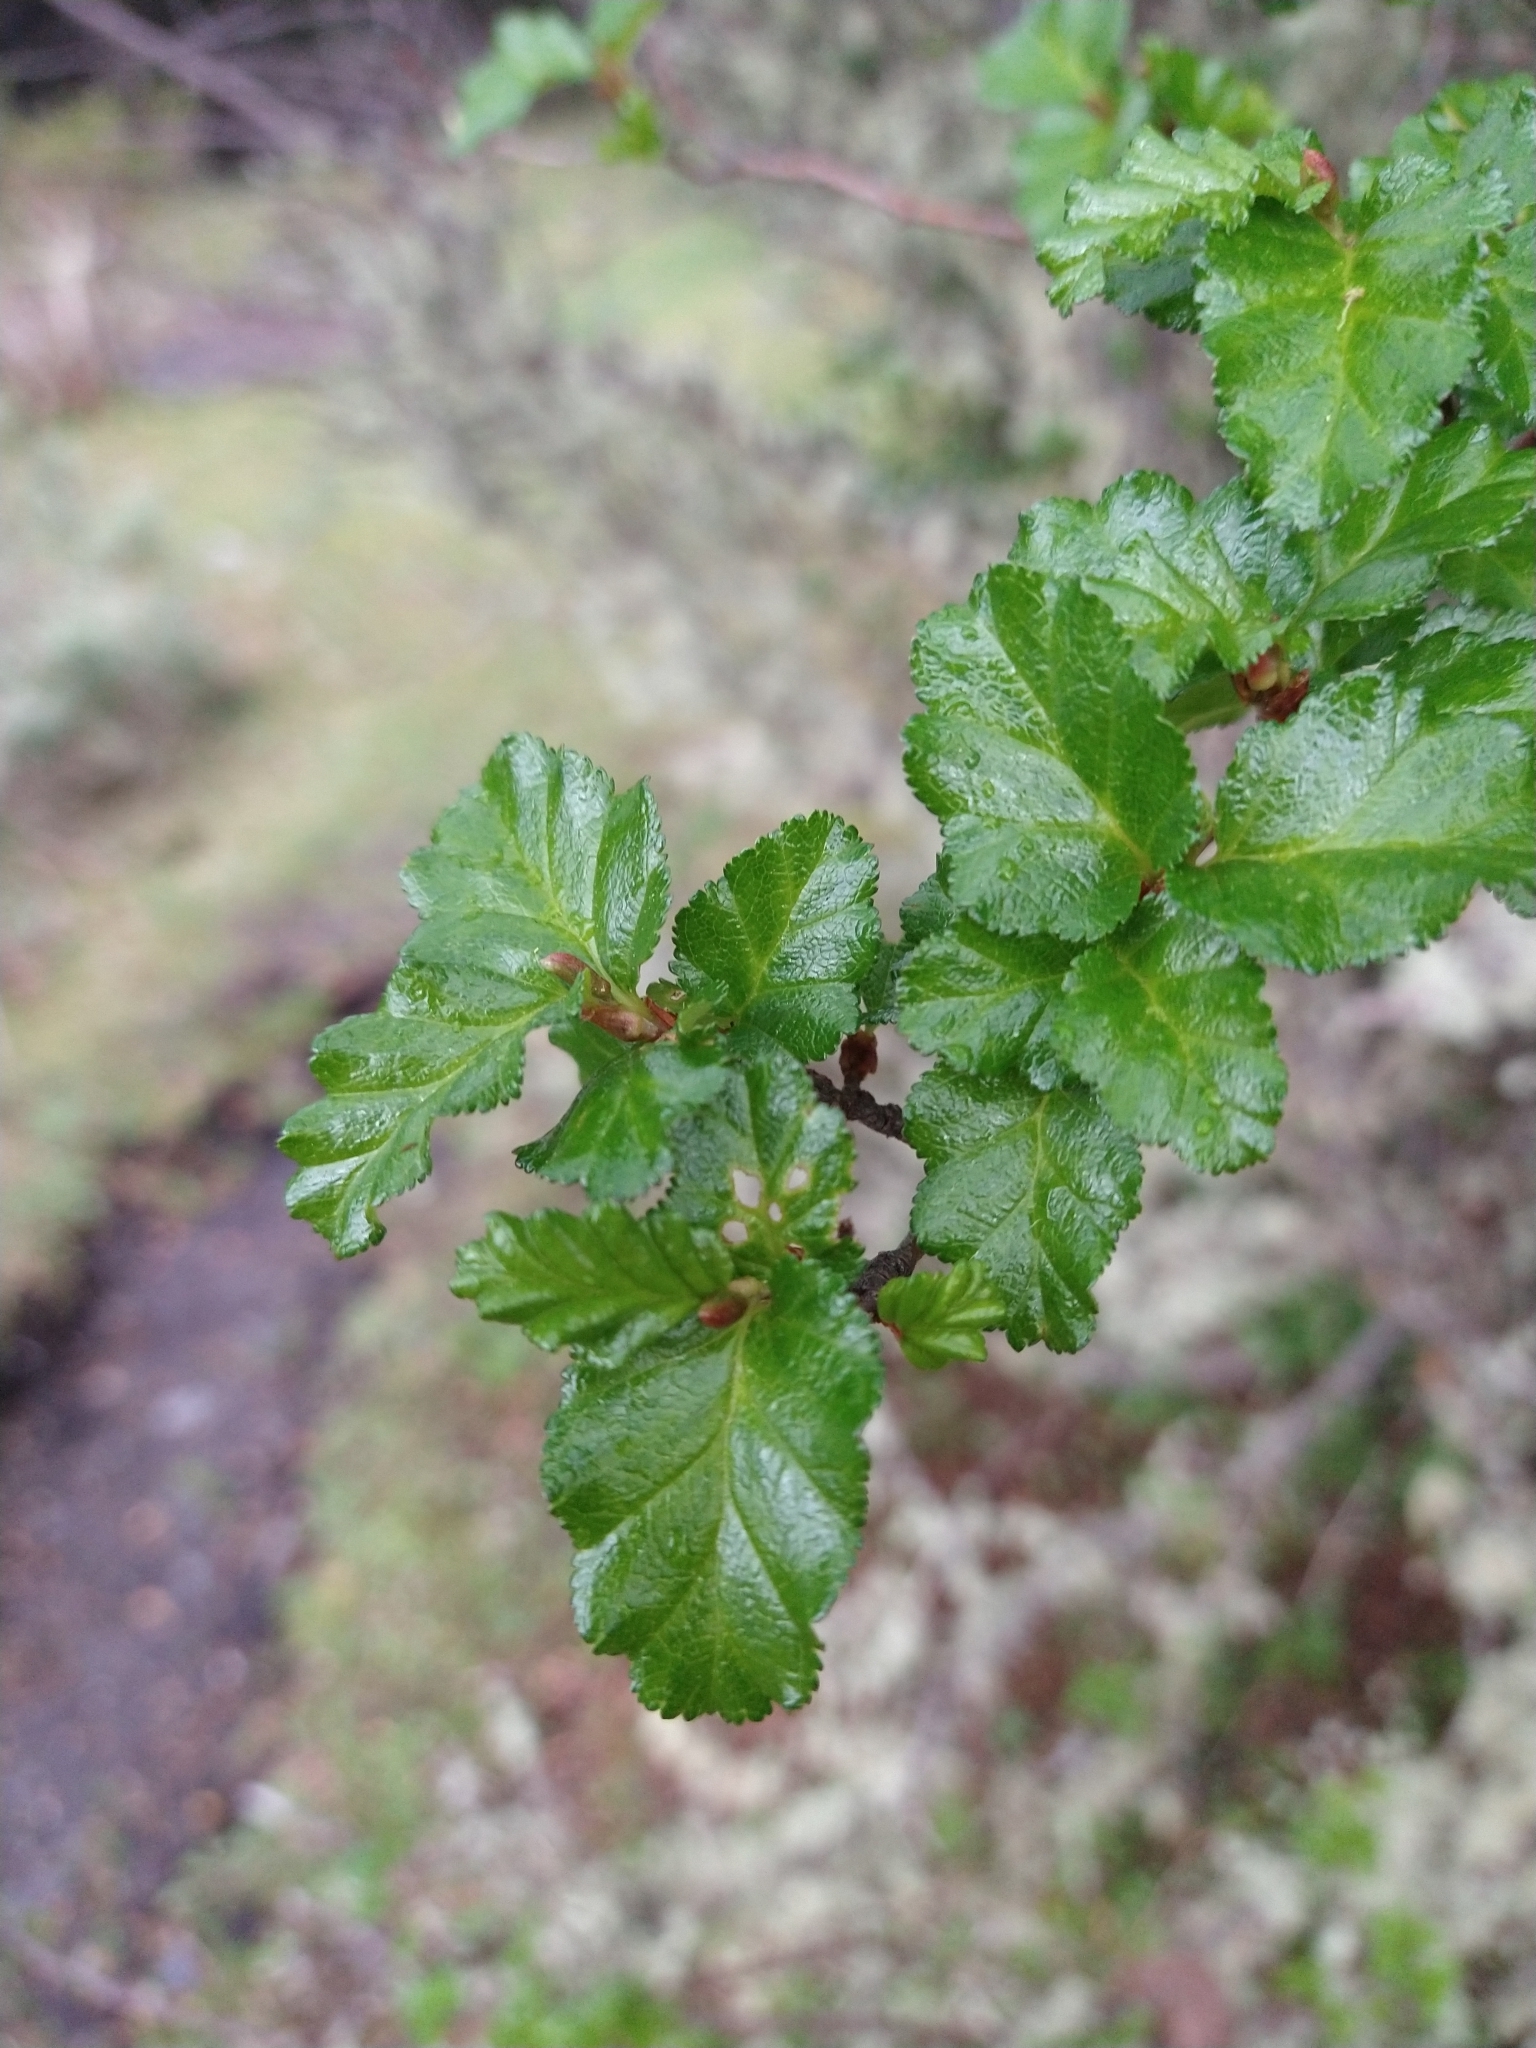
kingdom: Plantae
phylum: Tracheophyta
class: Magnoliopsida
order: Fagales
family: Nothofagaceae
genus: Nothofagus
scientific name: Nothofagus antarctica
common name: Antarctic beech
